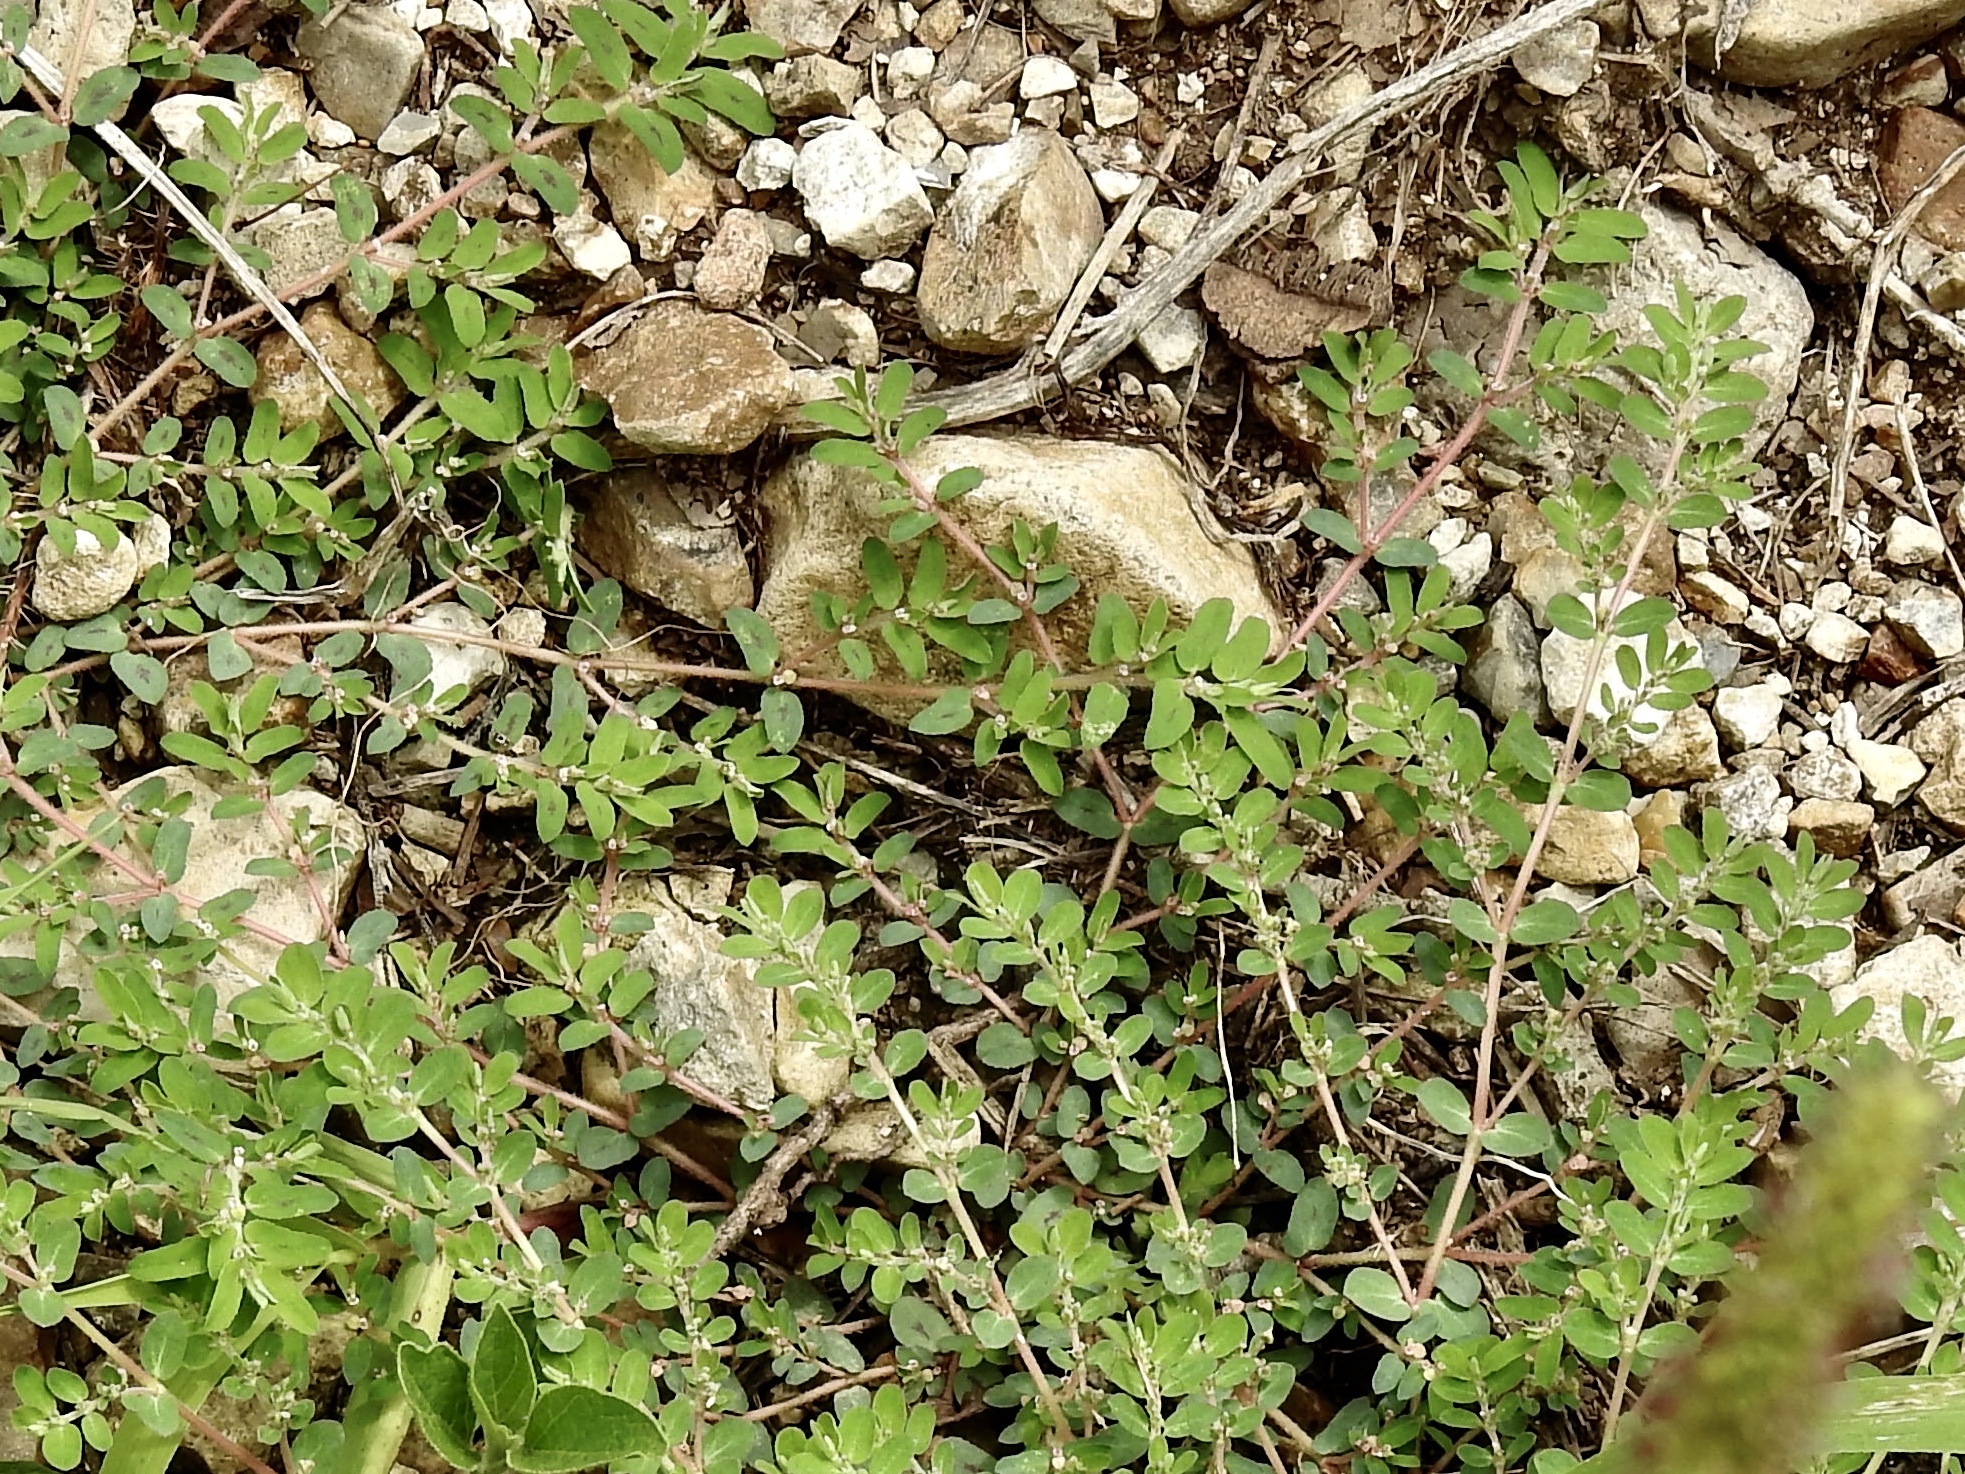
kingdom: Plantae
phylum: Tracheophyta
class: Magnoliopsida
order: Malpighiales
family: Euphorbiaceae
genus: Euphorbia
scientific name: Euphorbia maculata
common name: Spotted spurge
